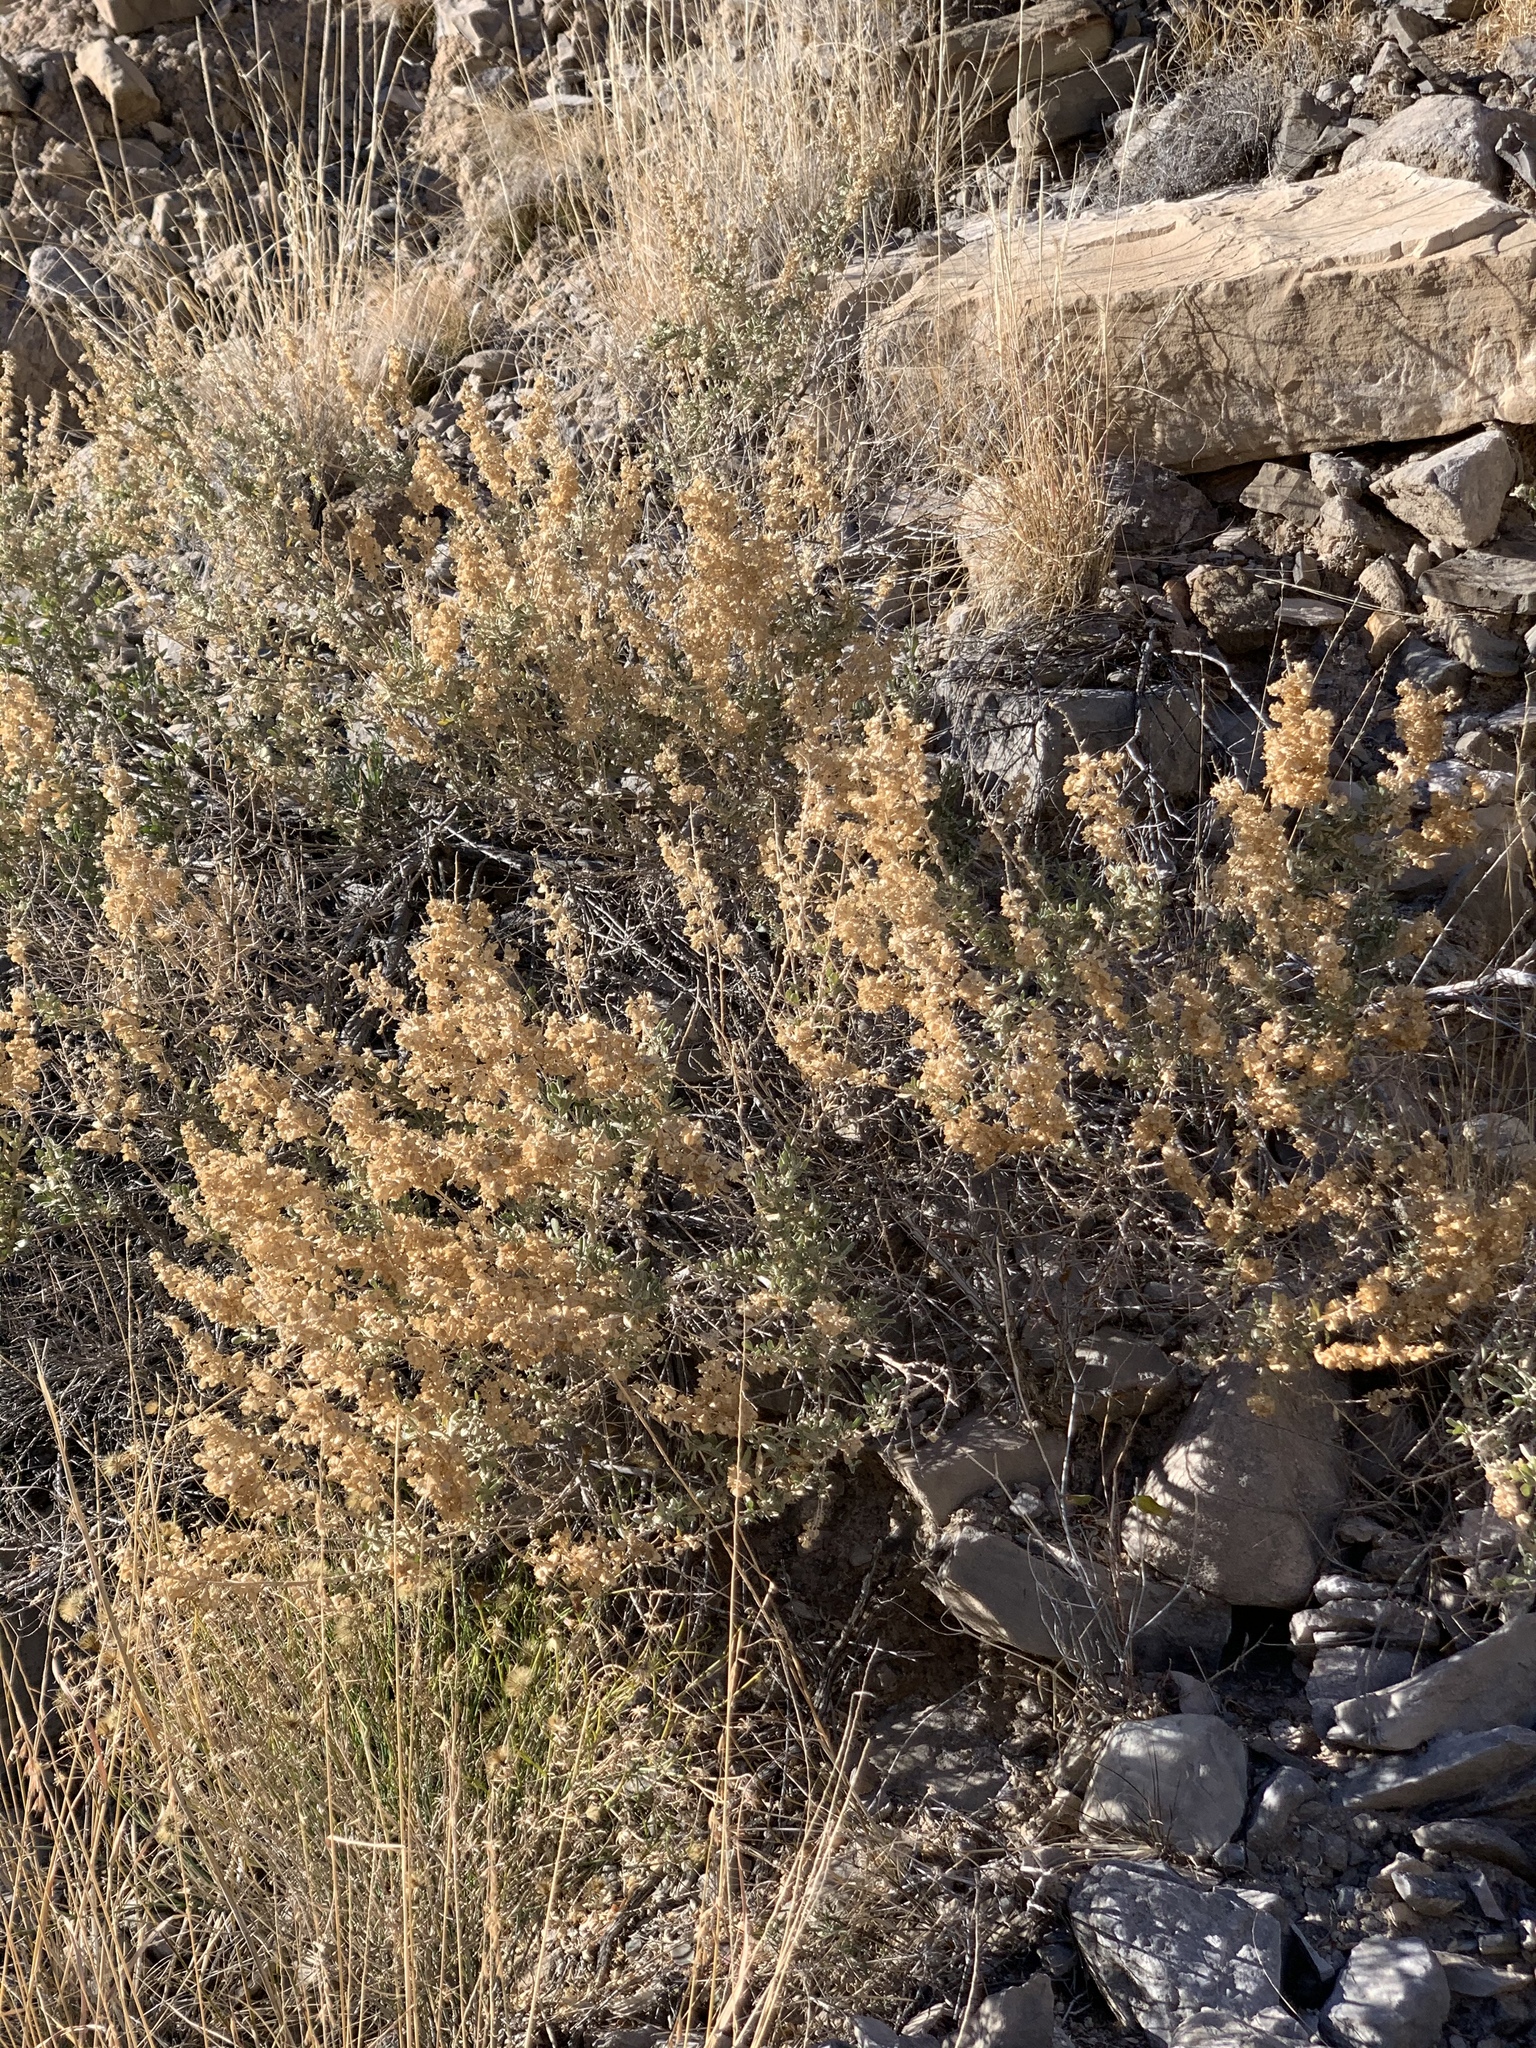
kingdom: Plantae
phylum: Tracheophyta
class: Magnoliopsida
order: Caryophyllales
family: Amaranthaceae
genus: Atriplex
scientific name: Atriplex canescens
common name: Four-wing saltbush
